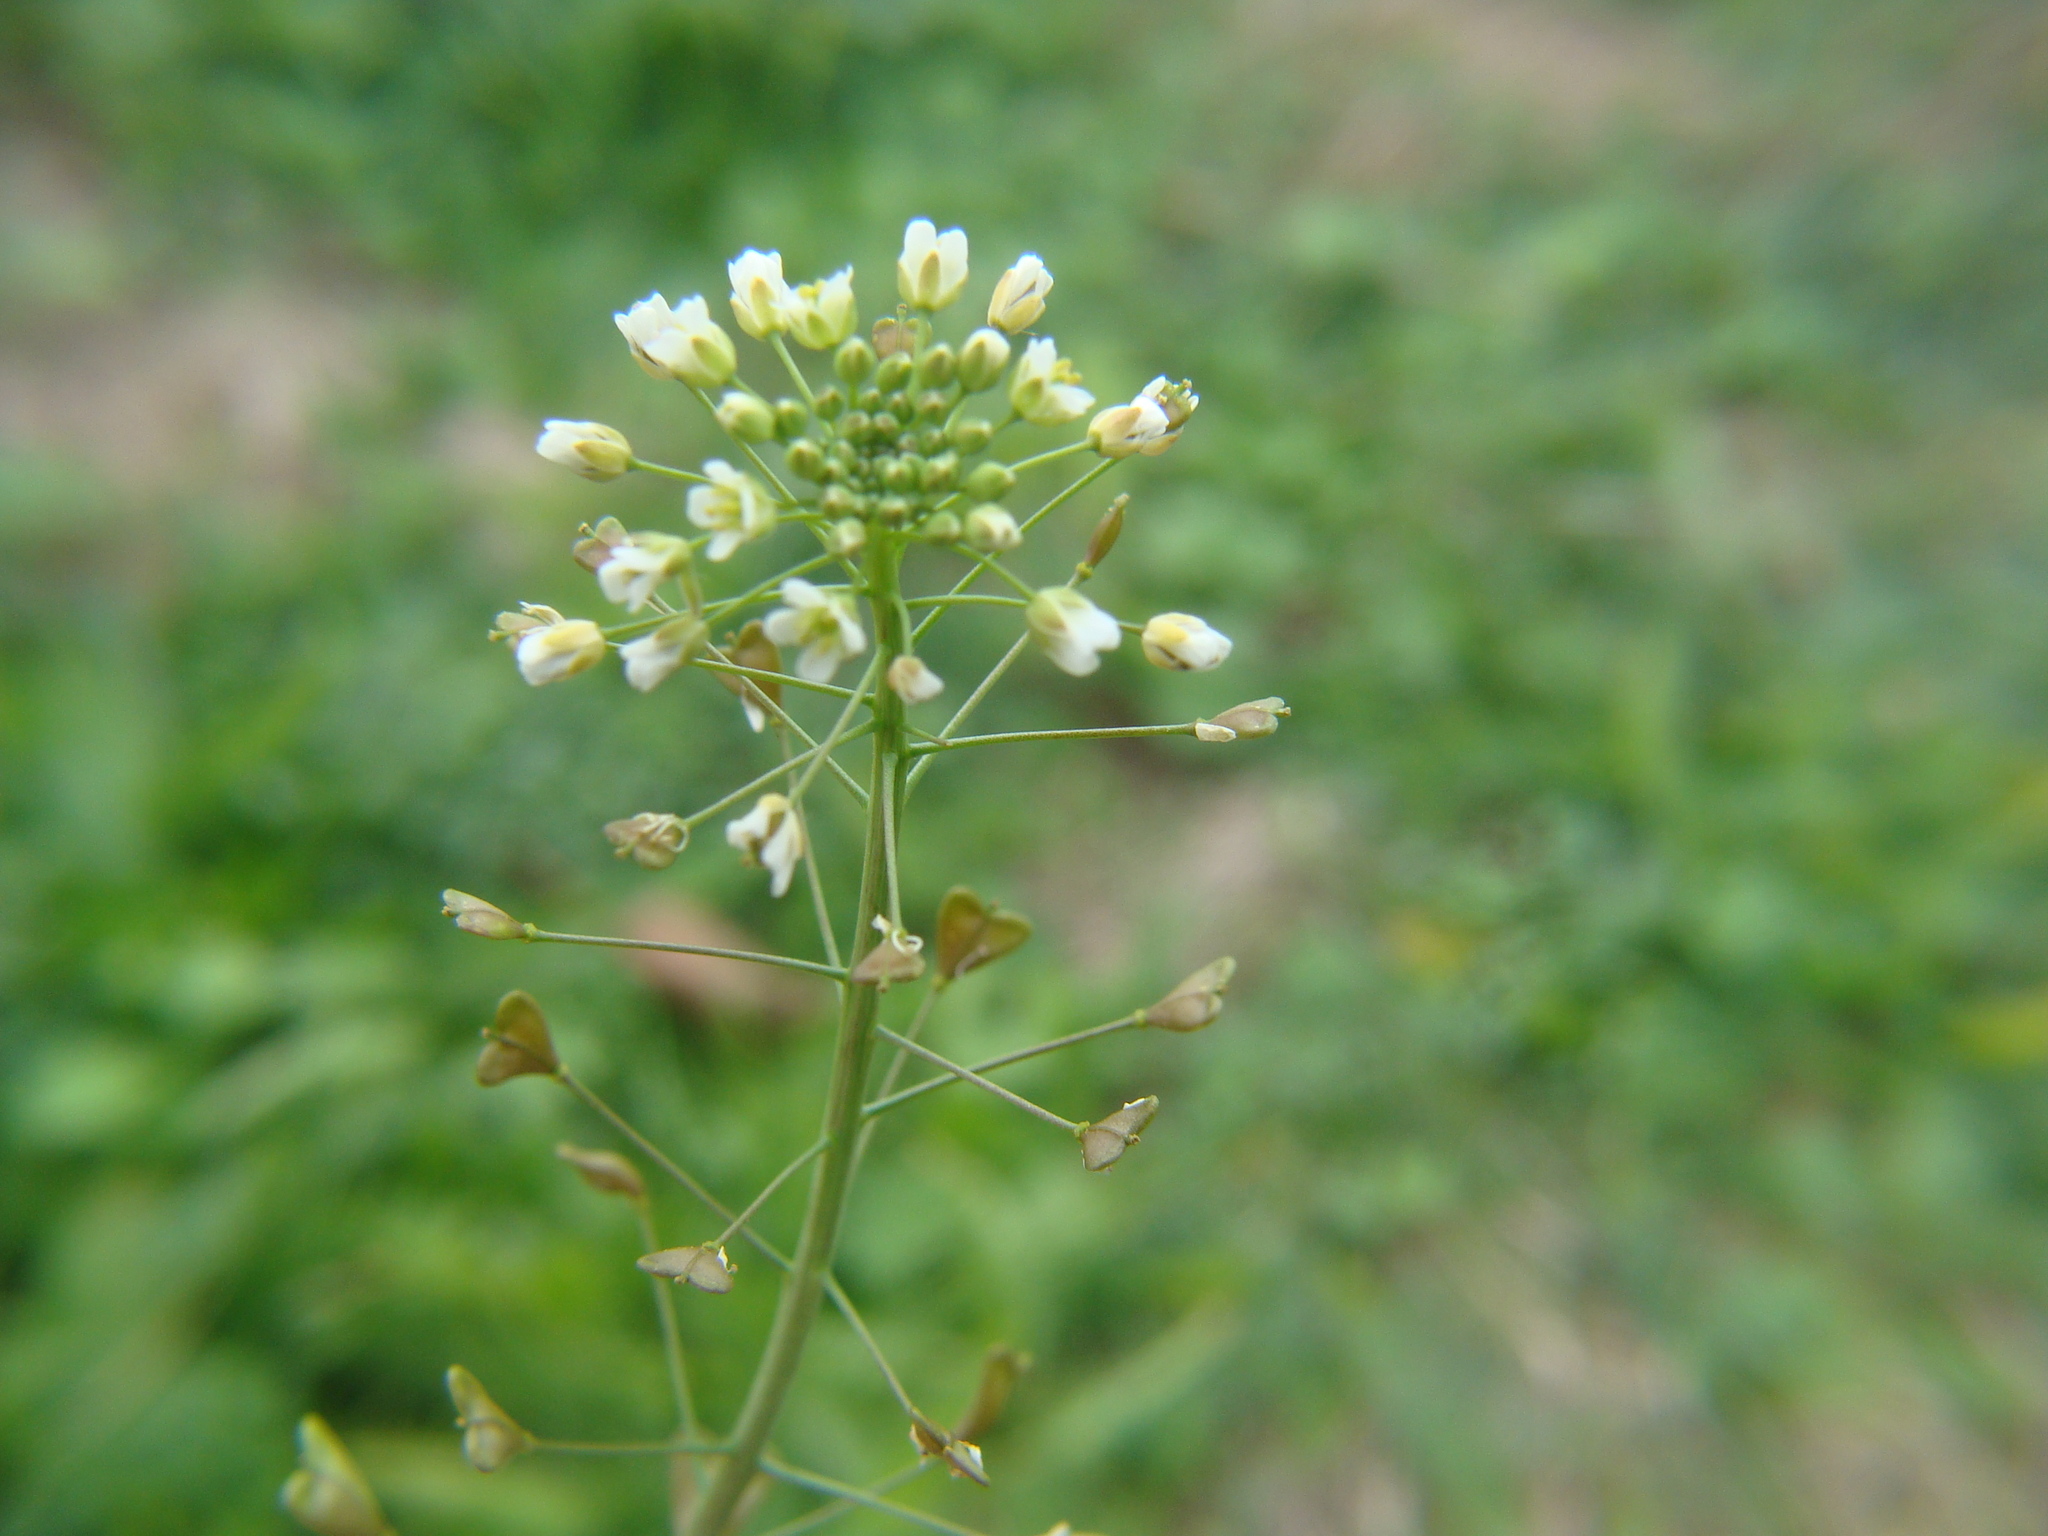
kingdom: Plantae
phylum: Tracheophyta
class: Magnoliopsida
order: Brassicales
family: Brassicaceae
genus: Capsella
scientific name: Capsella bursa-pastoris
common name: Shepherd's purse
